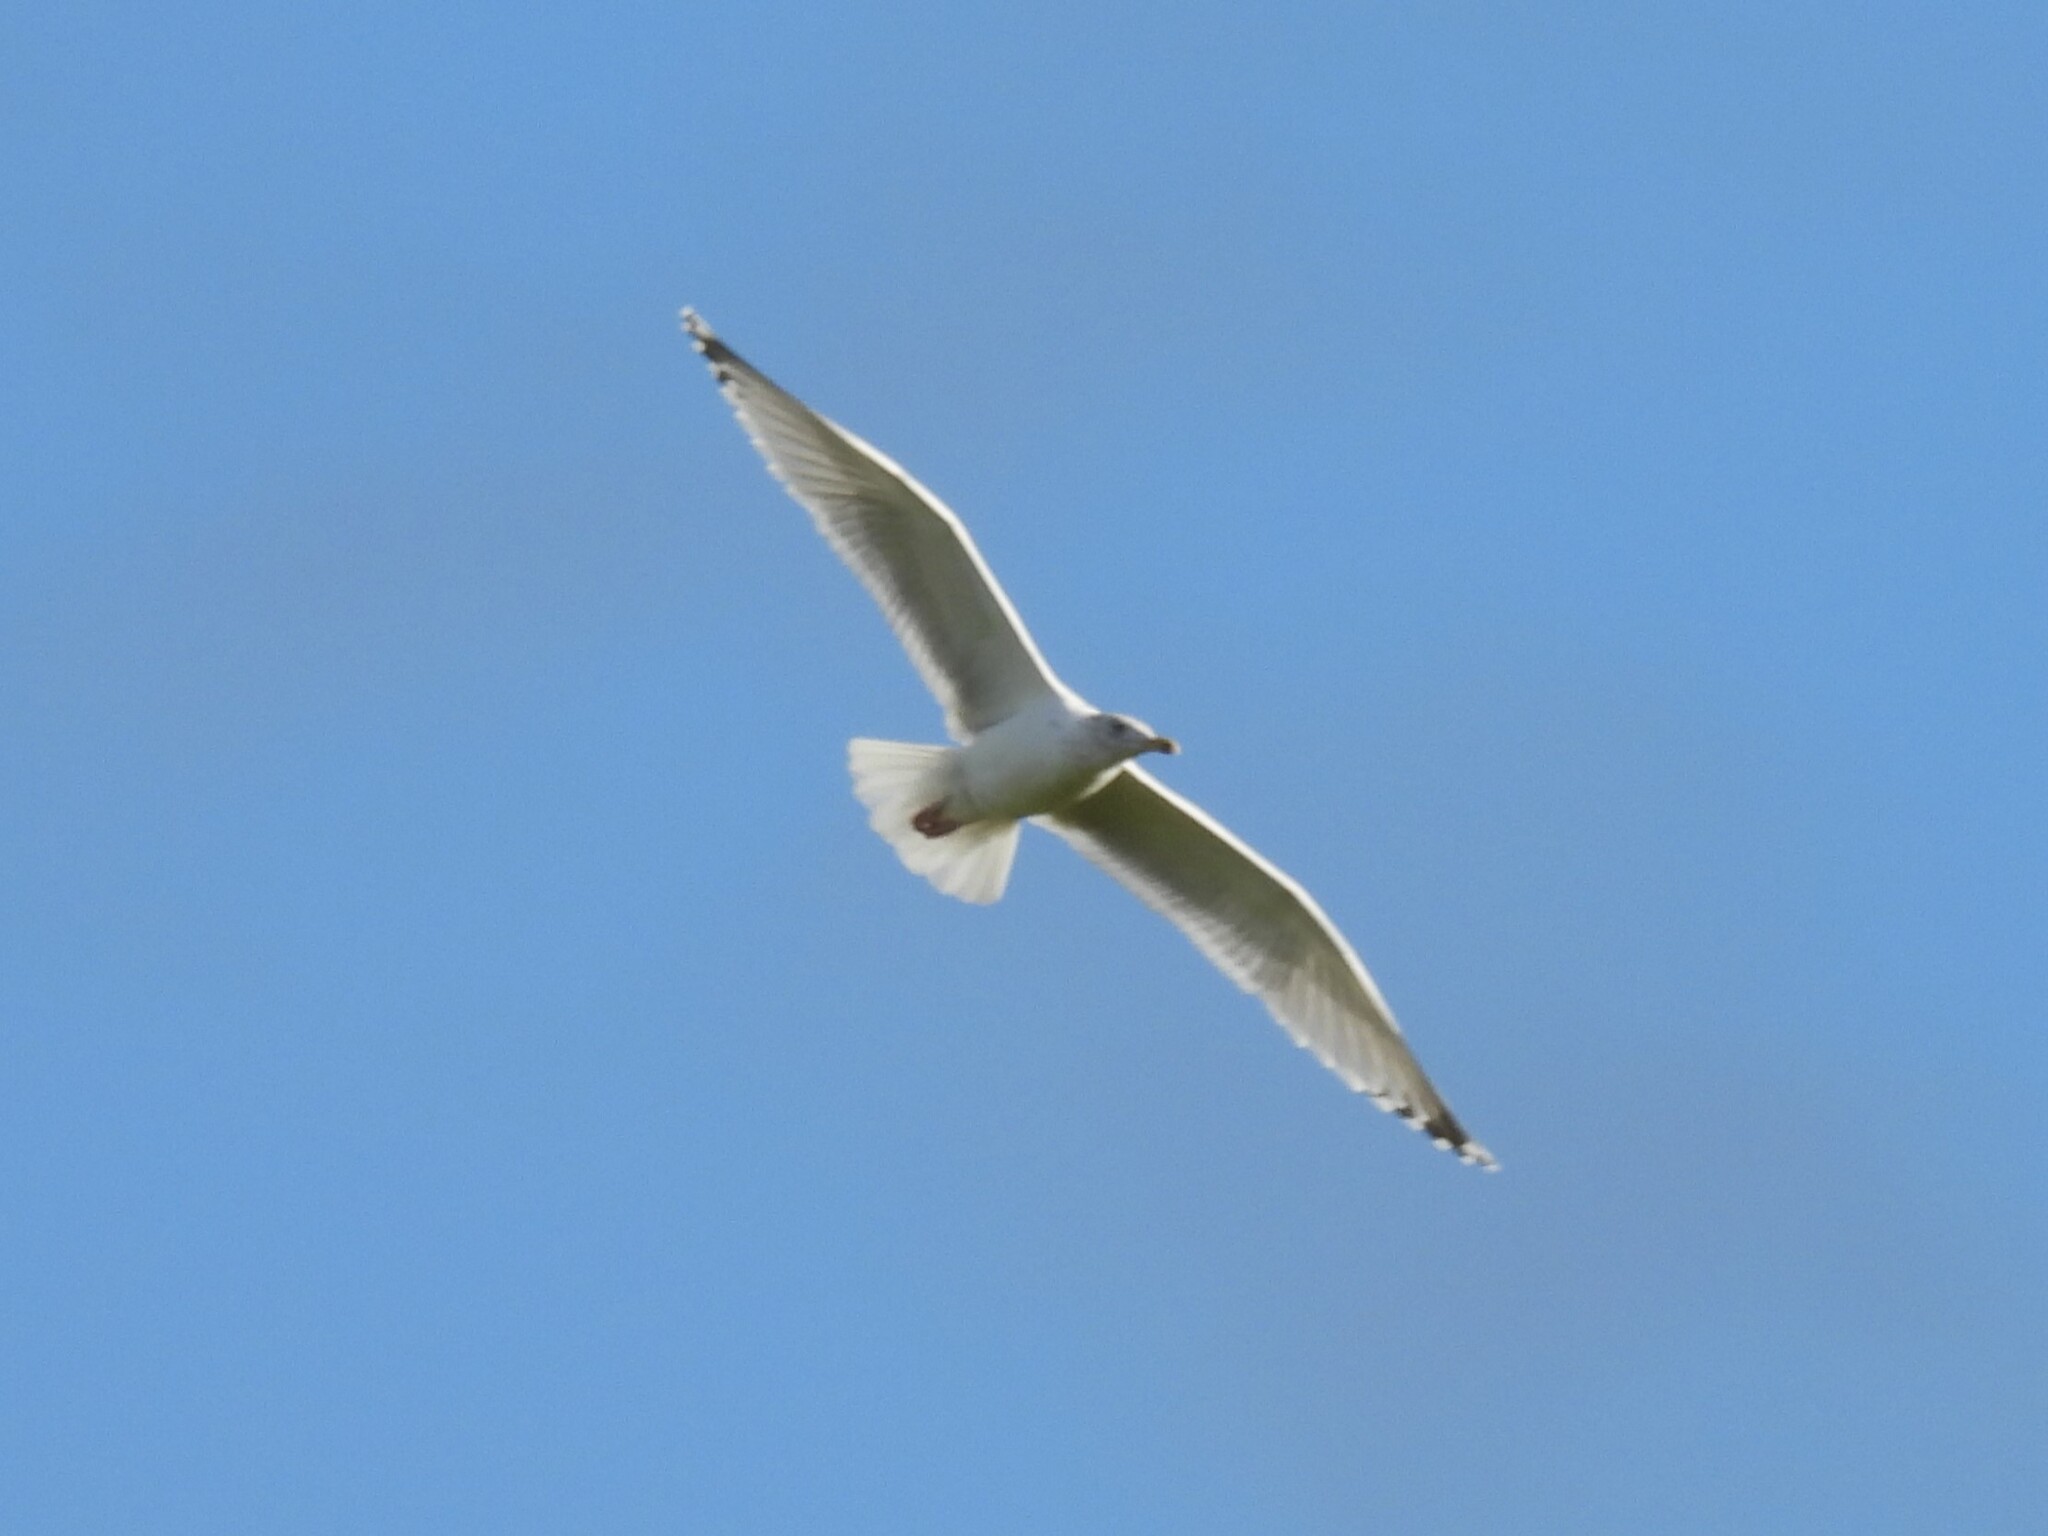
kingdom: Animalia
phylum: Chordata
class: Aves
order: Charadriiformes
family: Laridae
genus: Larus
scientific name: Larus argentatus
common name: Herring gull
